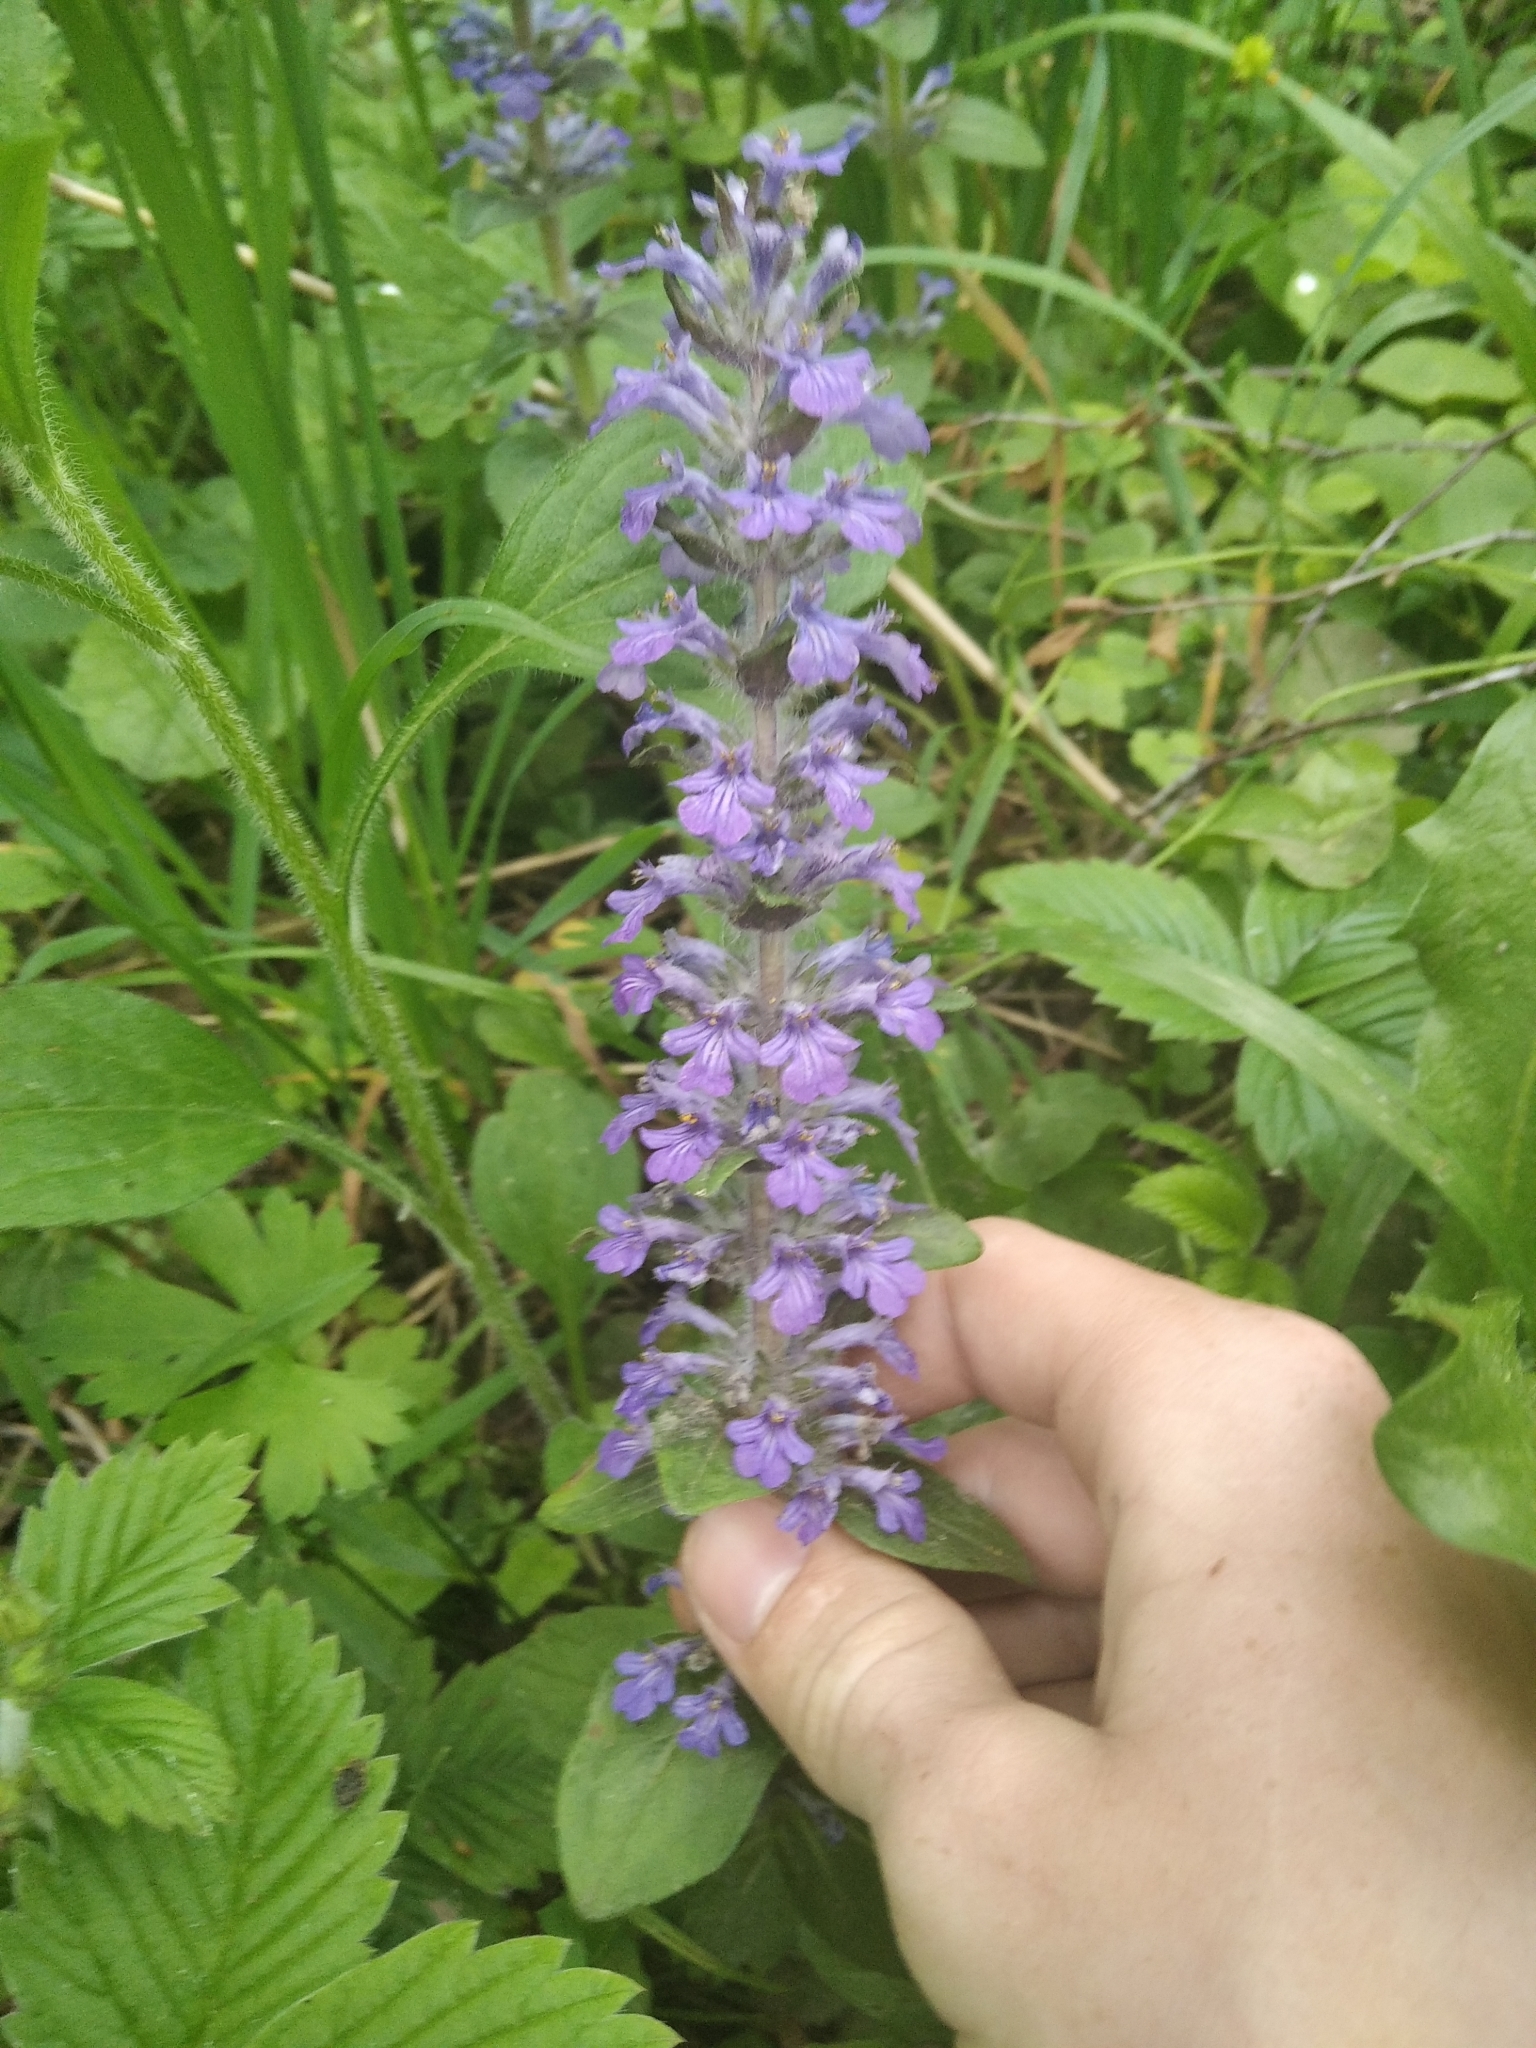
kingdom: Plantae
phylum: Tracheophyta
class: Magnoliopsida
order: Lamiales
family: Lamiaceae
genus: Ajuga
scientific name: Ajuga reptans
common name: Bugle
